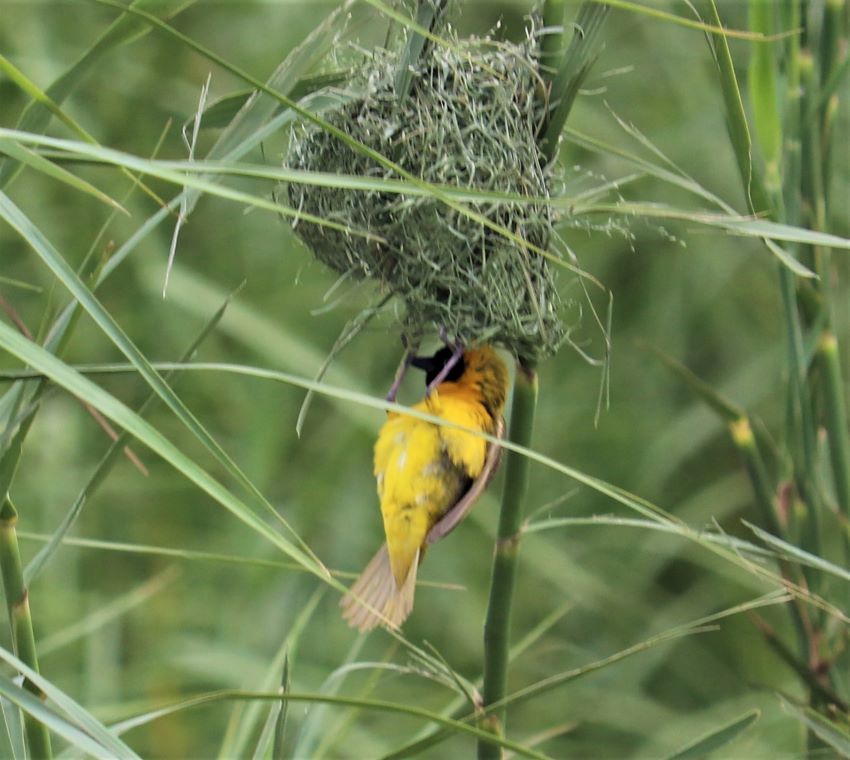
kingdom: Animalia
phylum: Chordata
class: Aves
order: Passeriformes
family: Ploceidae
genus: Ploceus
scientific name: Ploceus intermedius
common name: Lesser masked weaver
